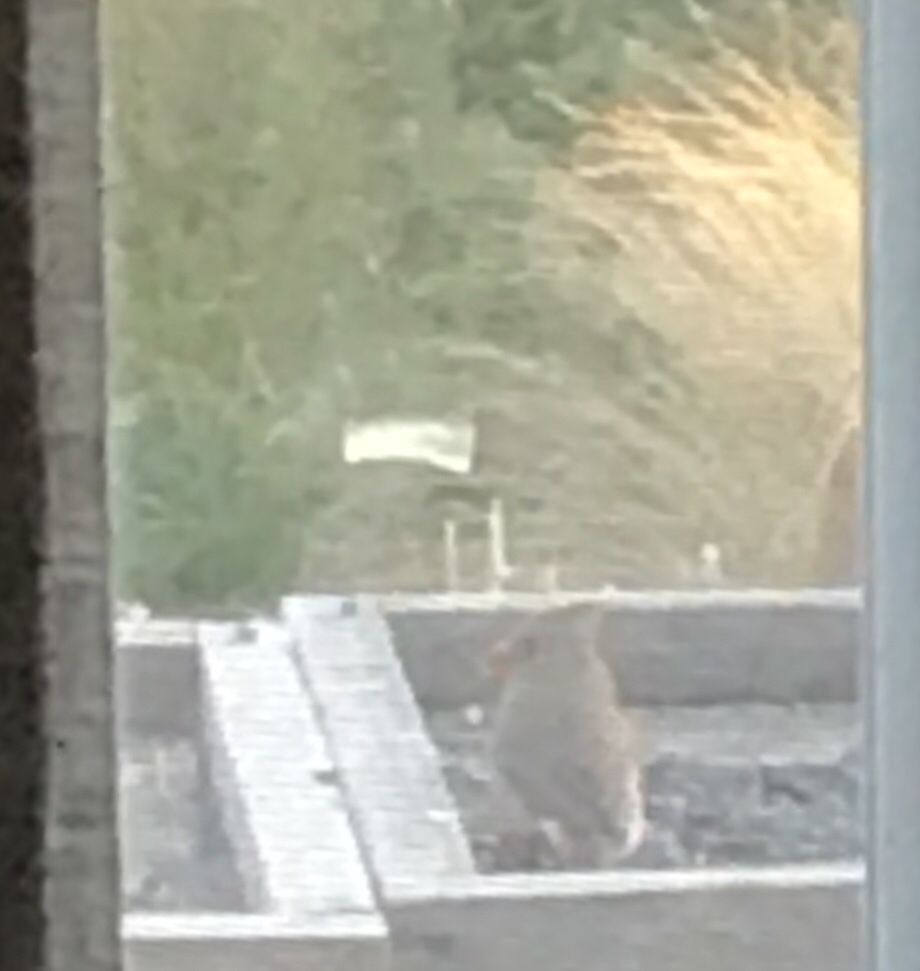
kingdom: Animalia
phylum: Chordata
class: Aves
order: Passeriformes
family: Cardinalidae
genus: Cardinalis
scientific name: Cardinalis cardinalis
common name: Northern cardinal
